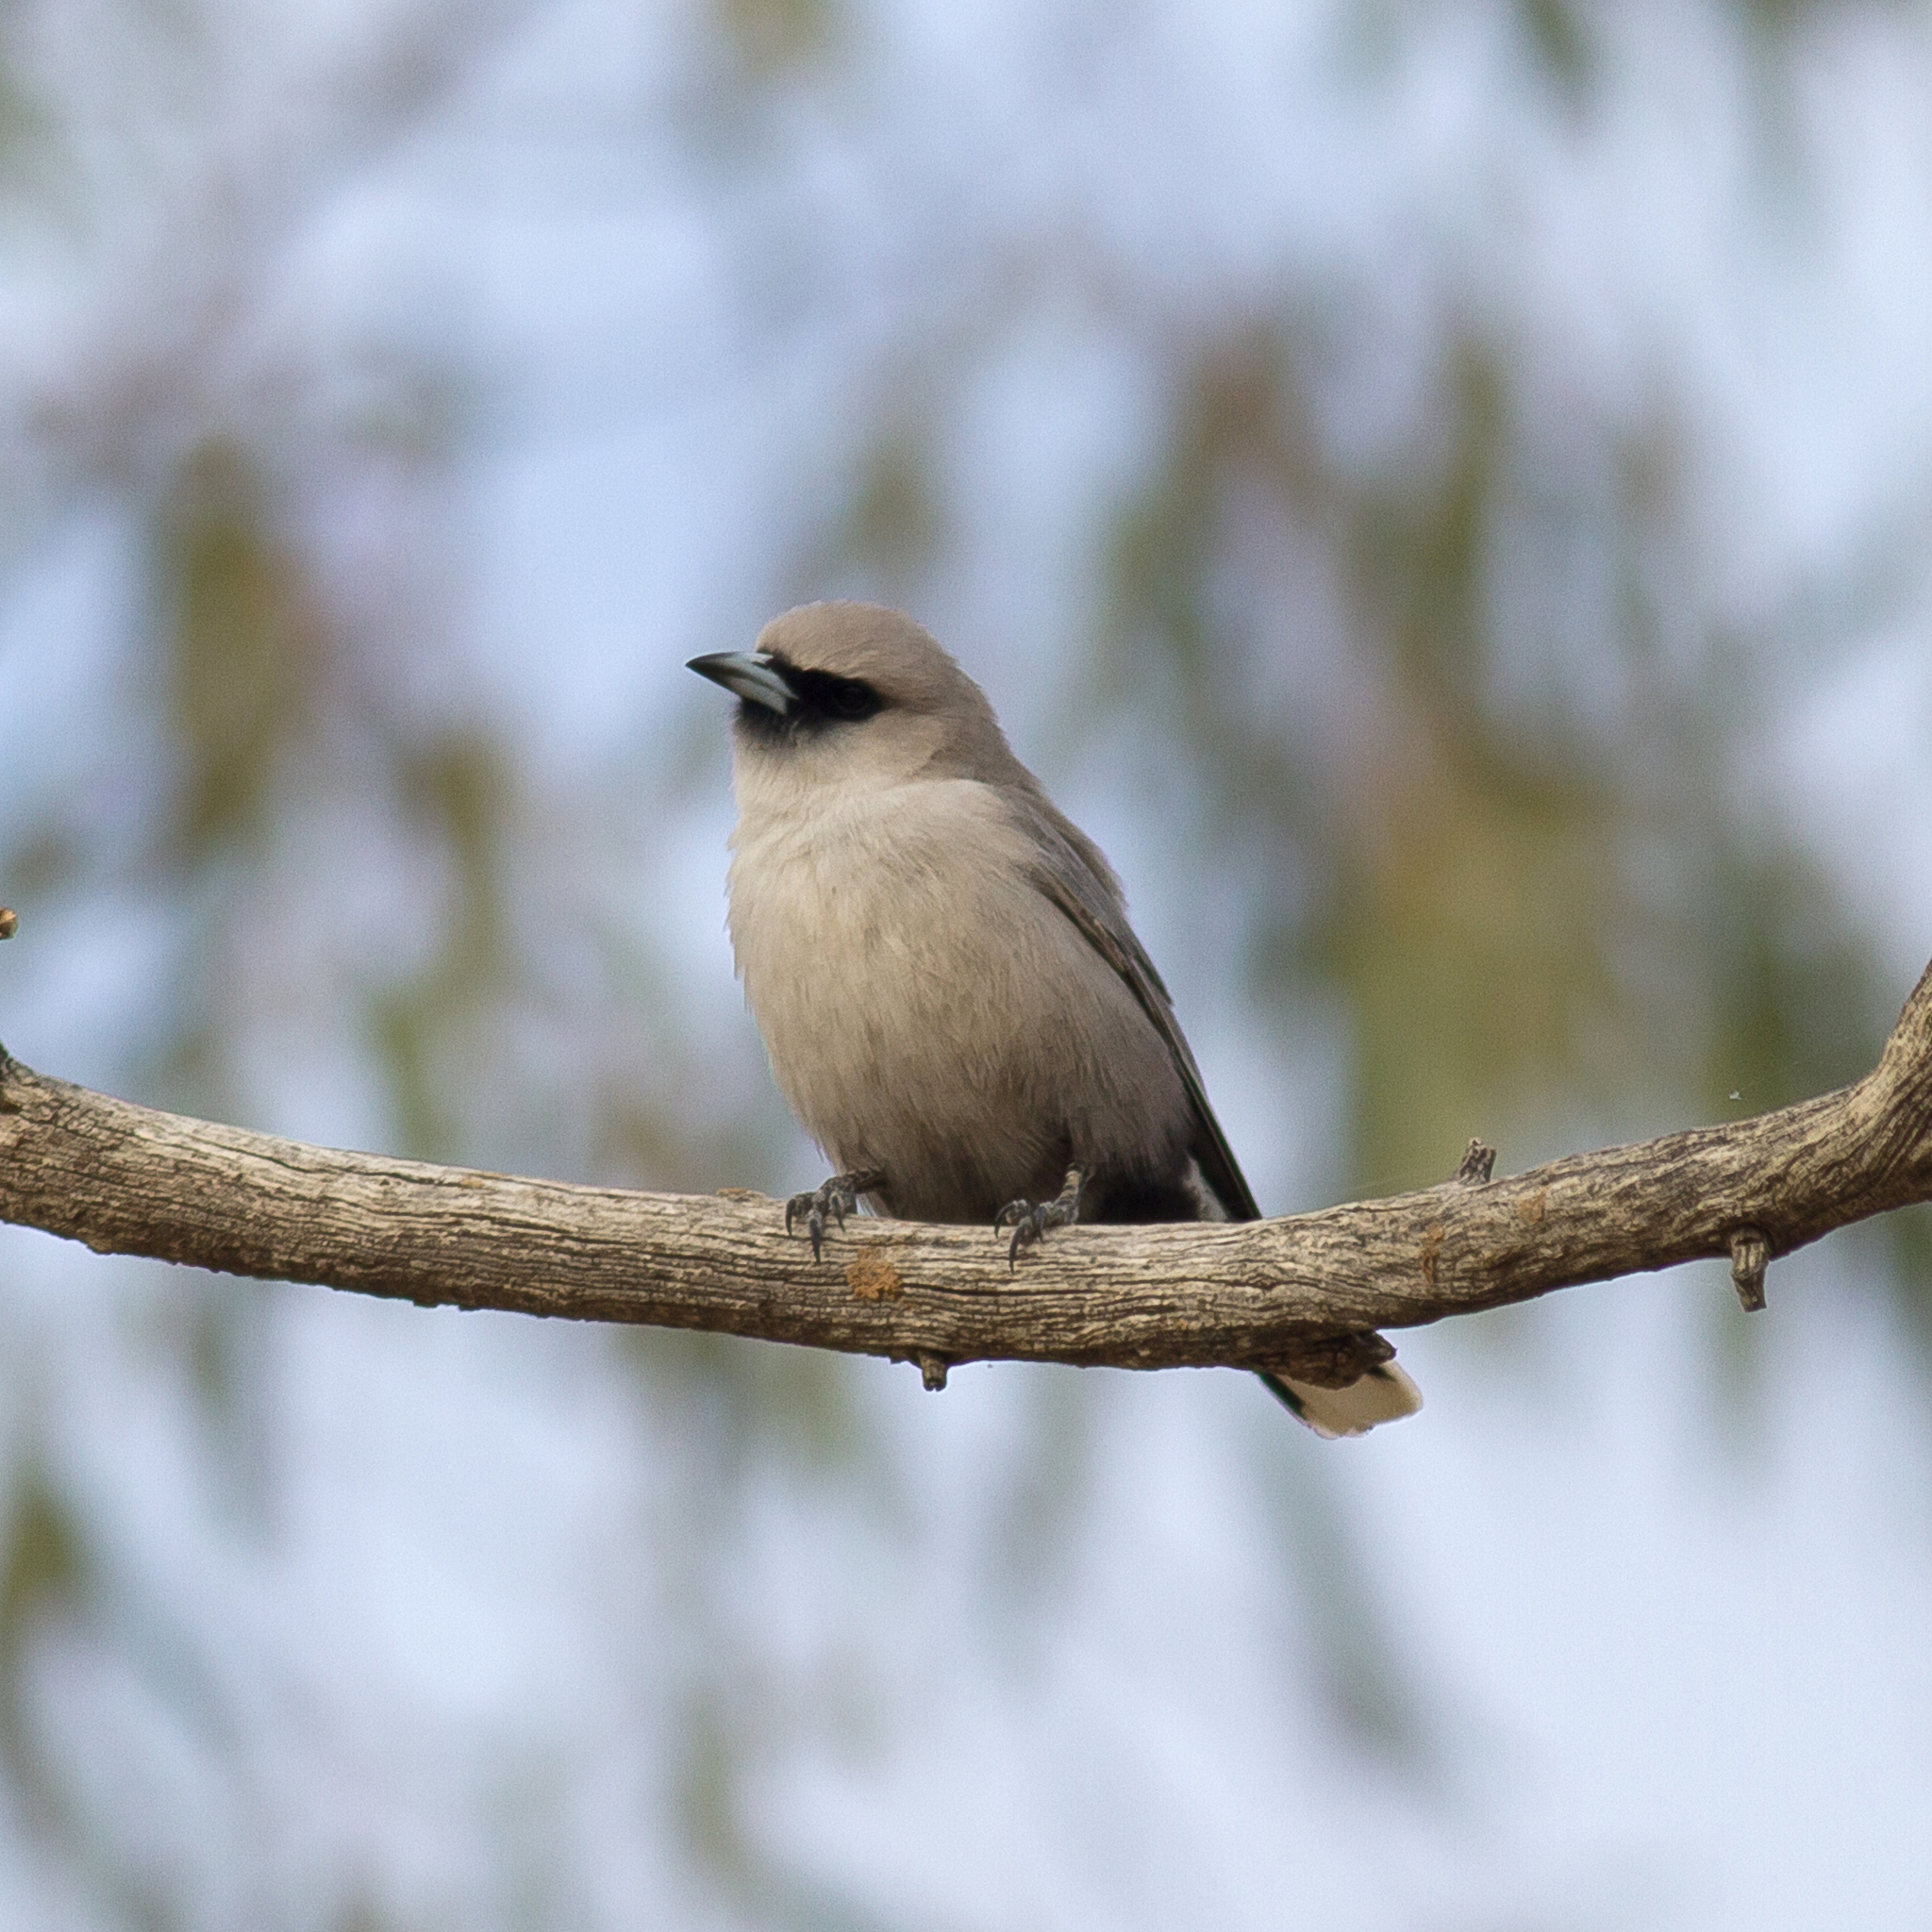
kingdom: Animalia
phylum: Chordata
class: Aves
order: Passeriformes
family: Artamidae
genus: Artamus
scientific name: Artamus cinereus
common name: Black-faced woodswallow
